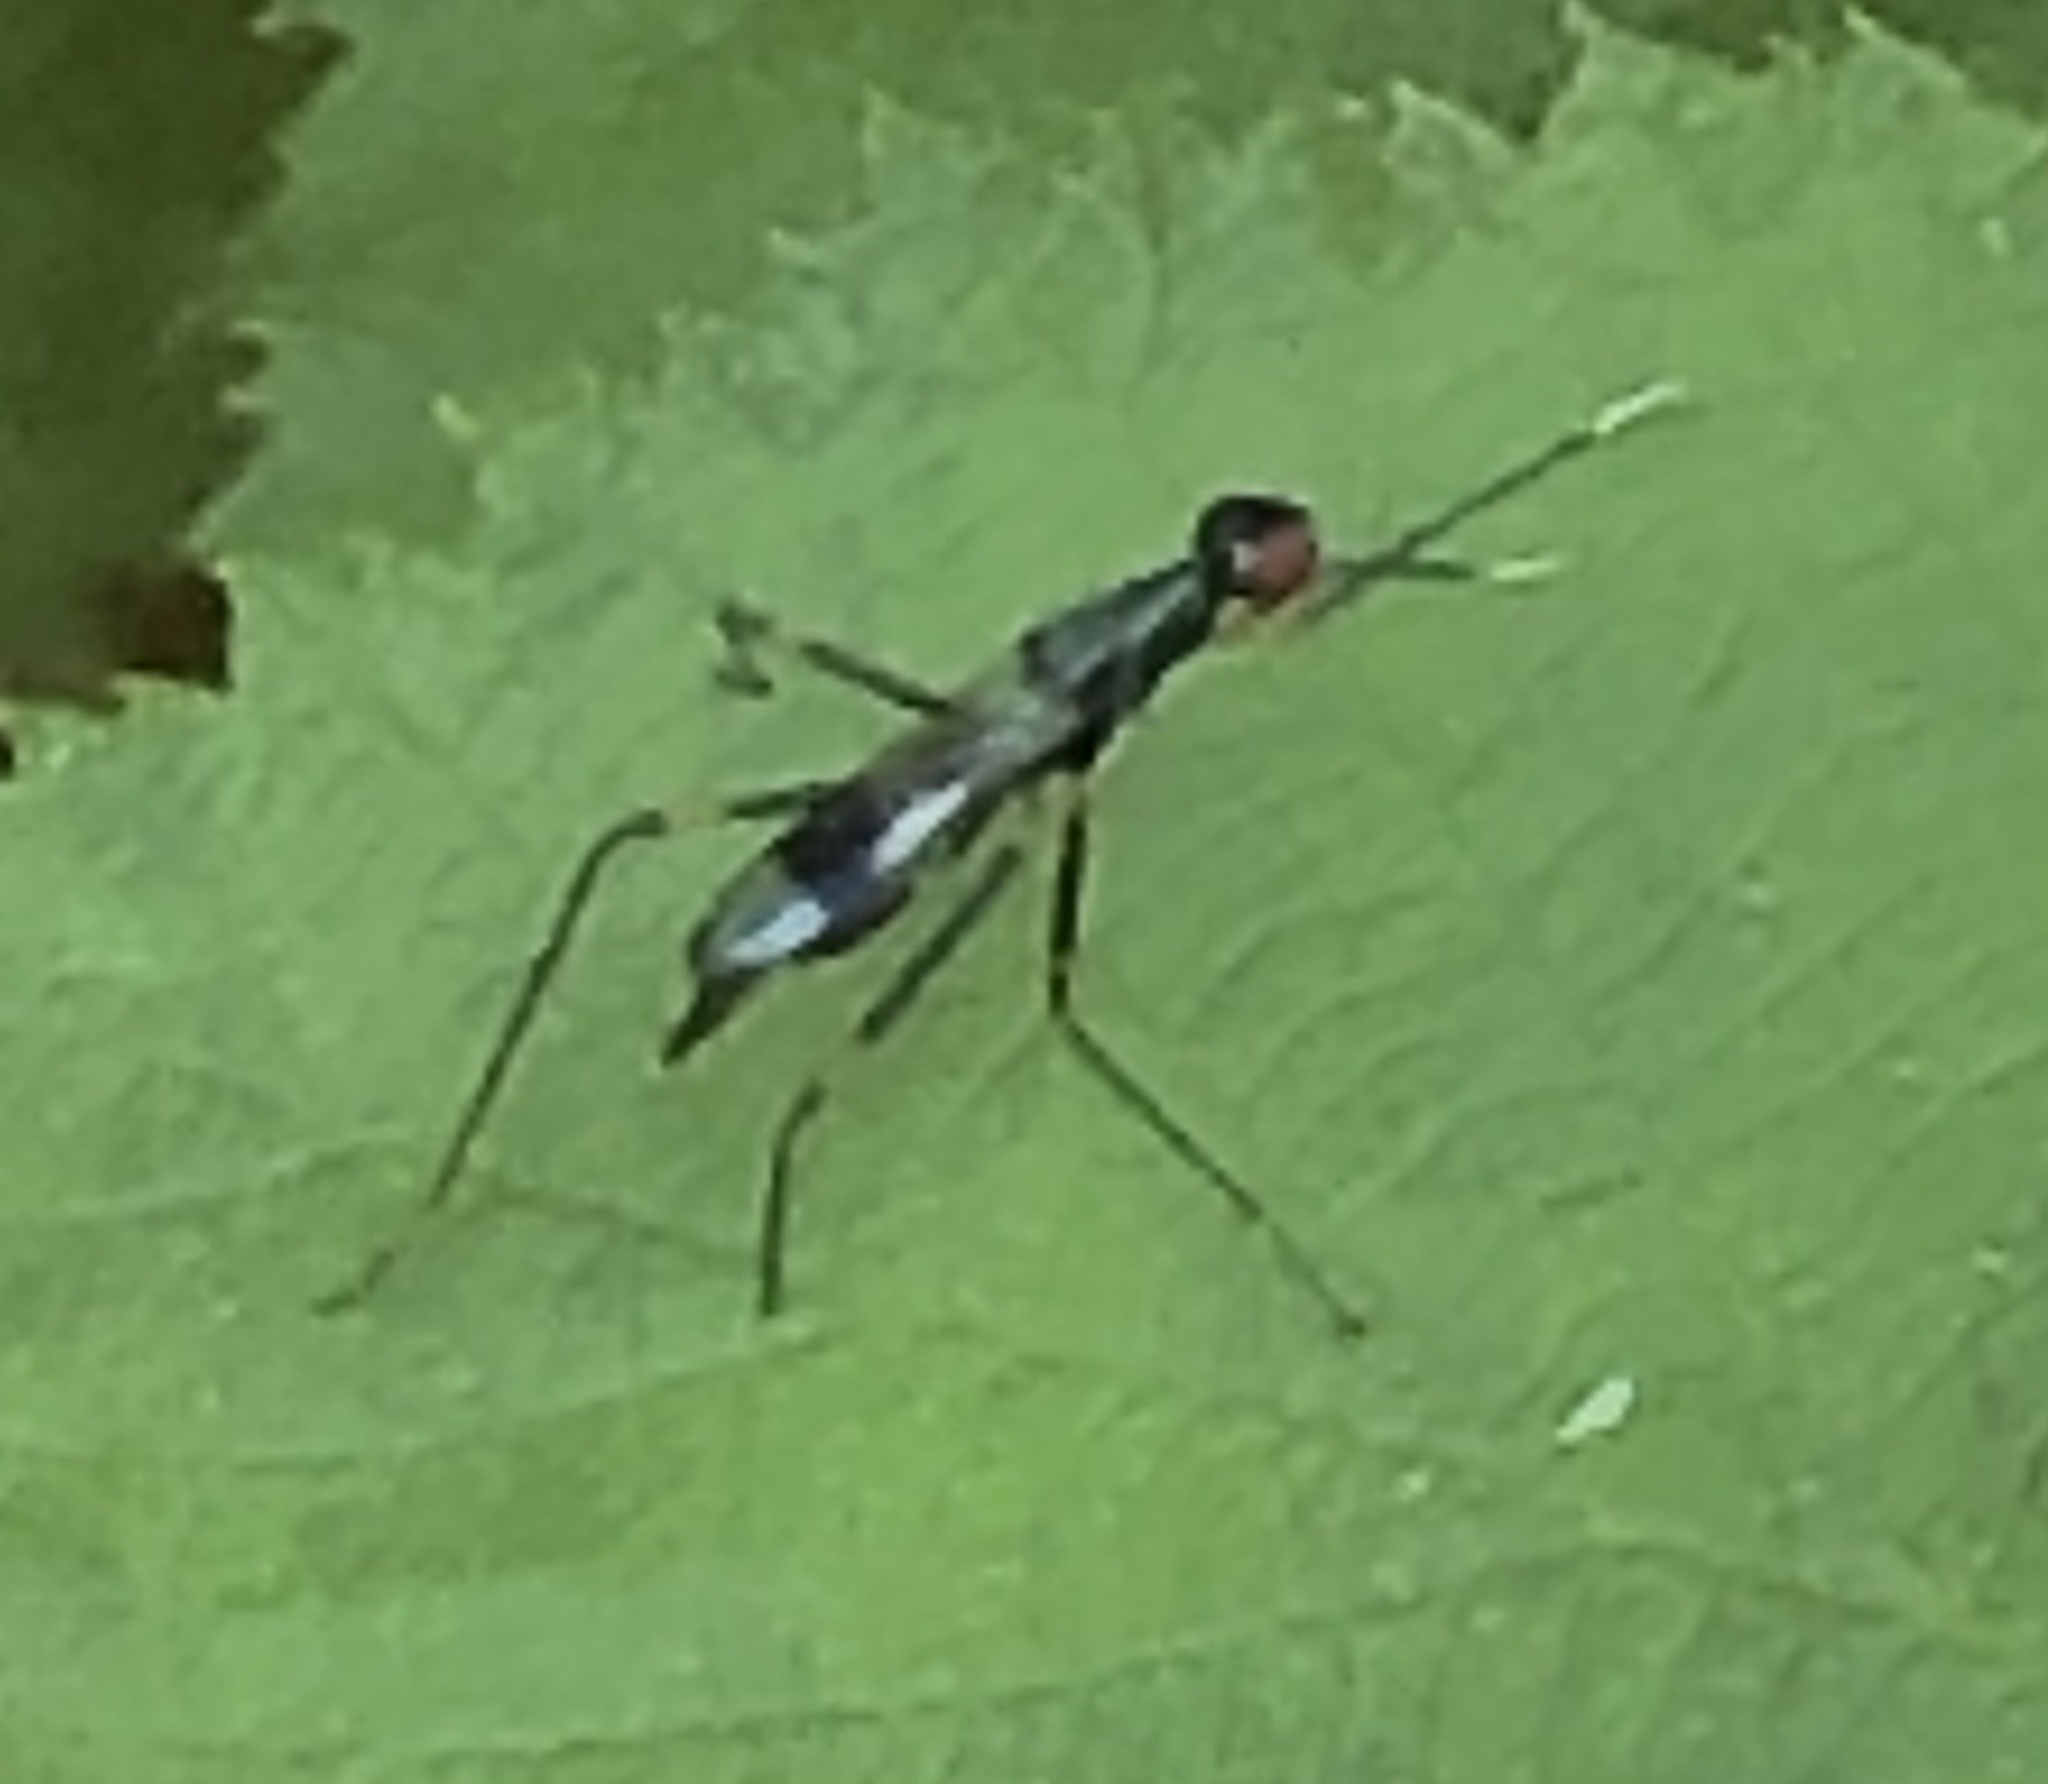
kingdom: Animalia
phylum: Arthropoda
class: Insecta
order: Diptera
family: Micropezidae
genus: Rainieria
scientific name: Rainieria antennaepes
